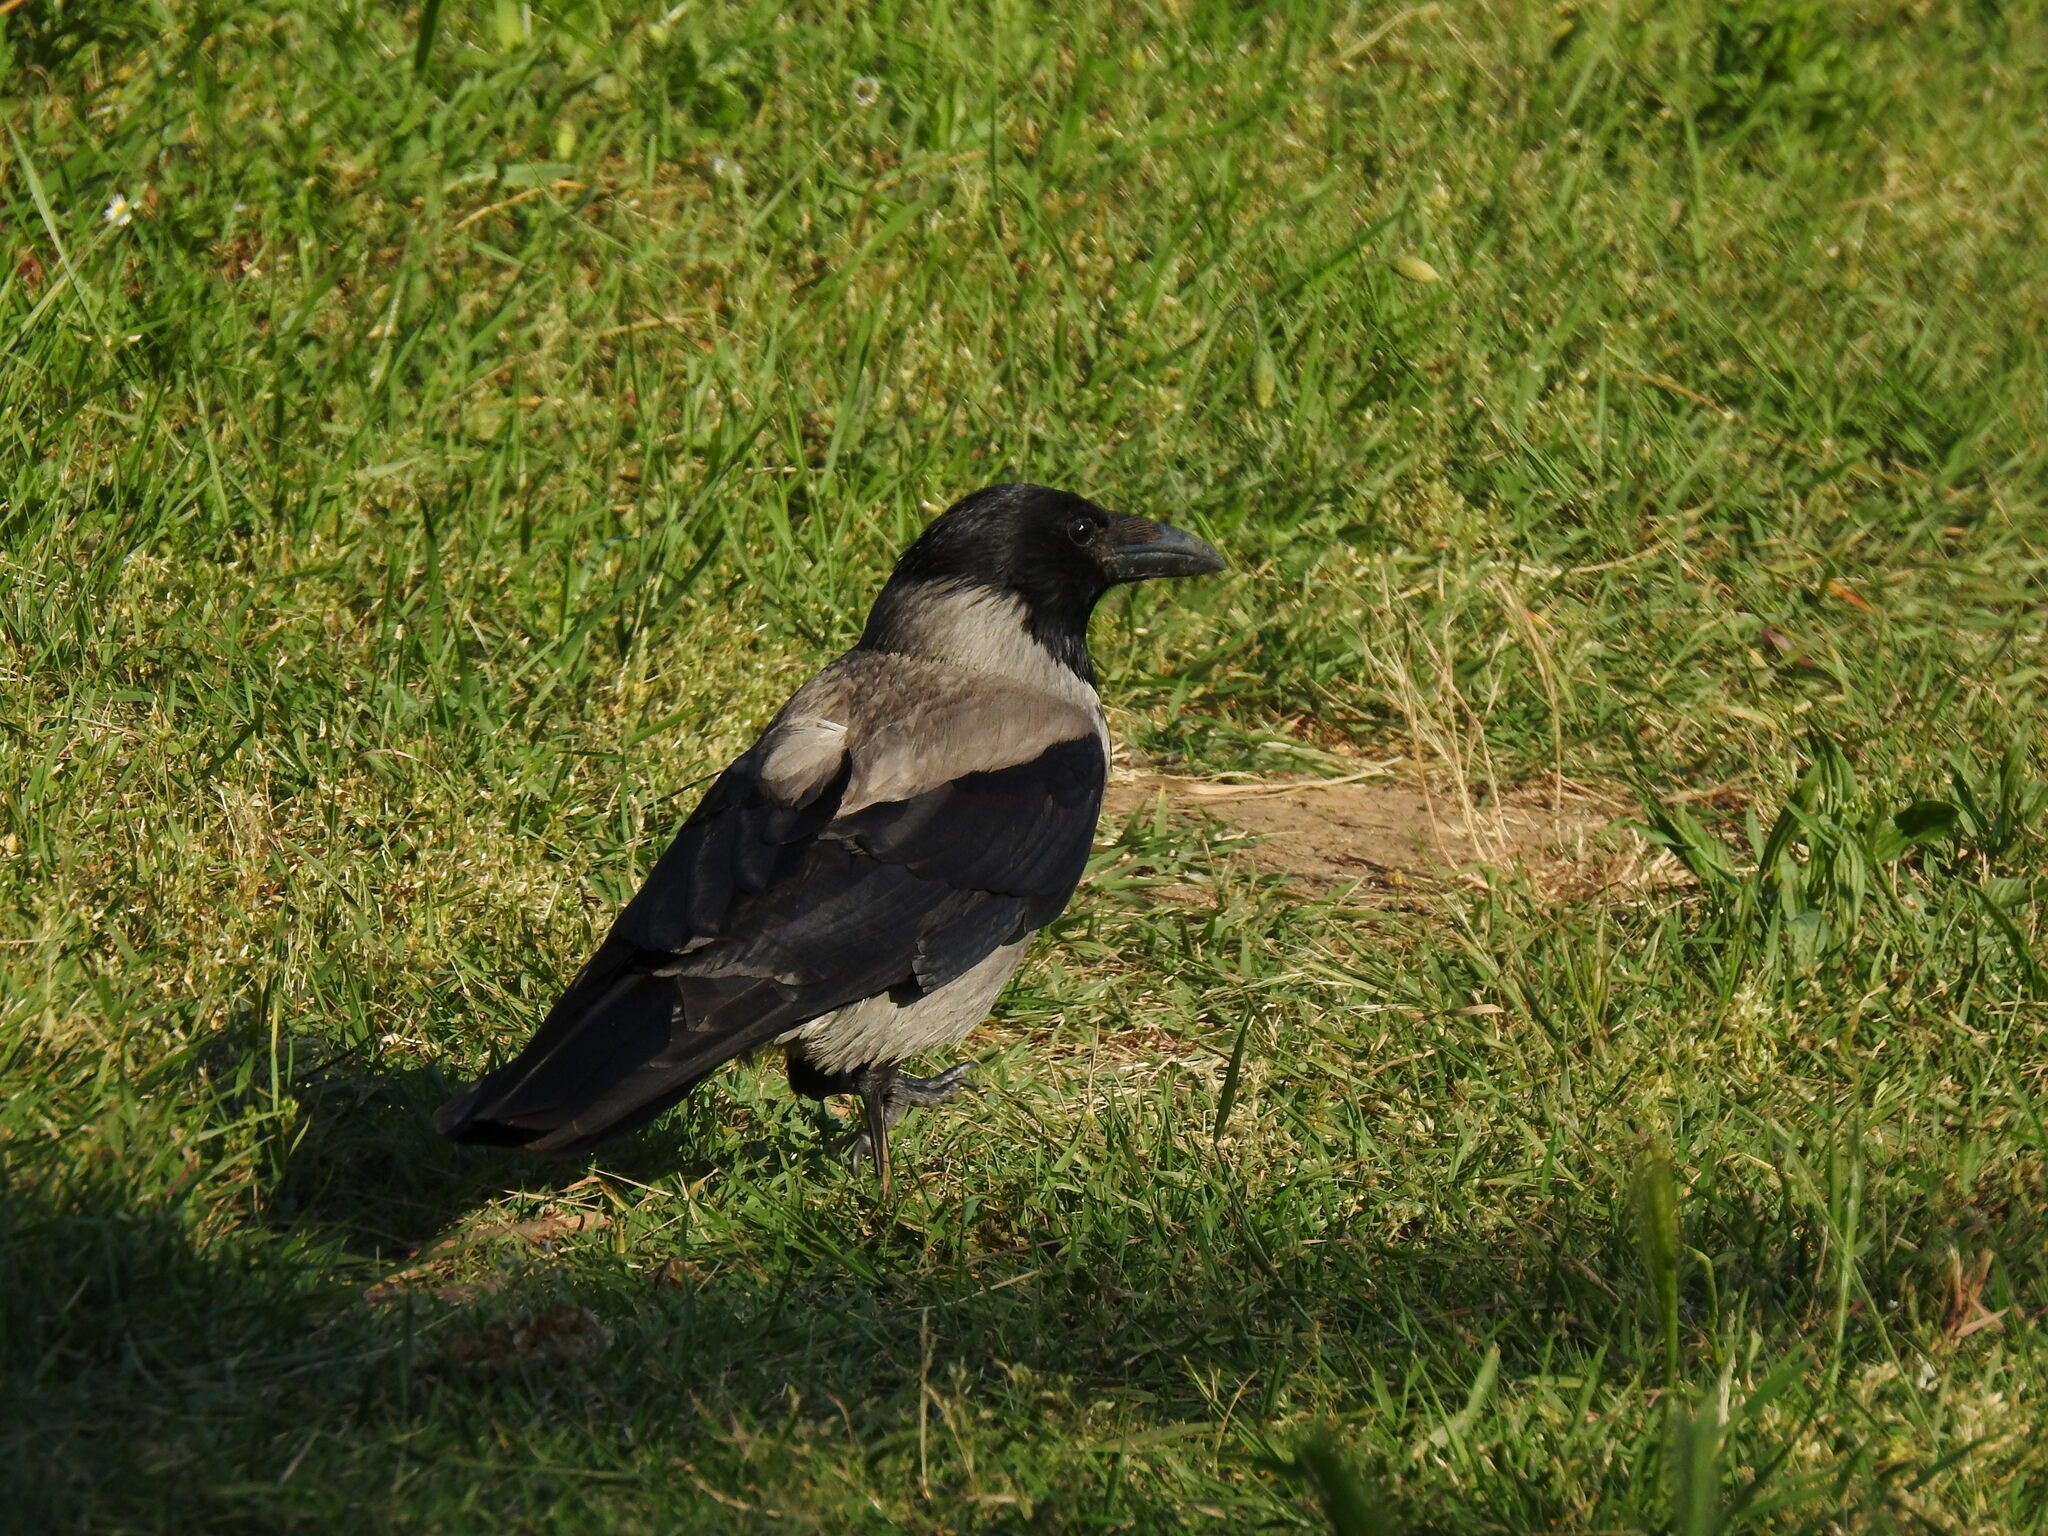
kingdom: Animalia
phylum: Chordata
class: Aves
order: Passeriformes
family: Corvidae
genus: Corvus
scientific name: Corvus cornix
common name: Hooded crow
